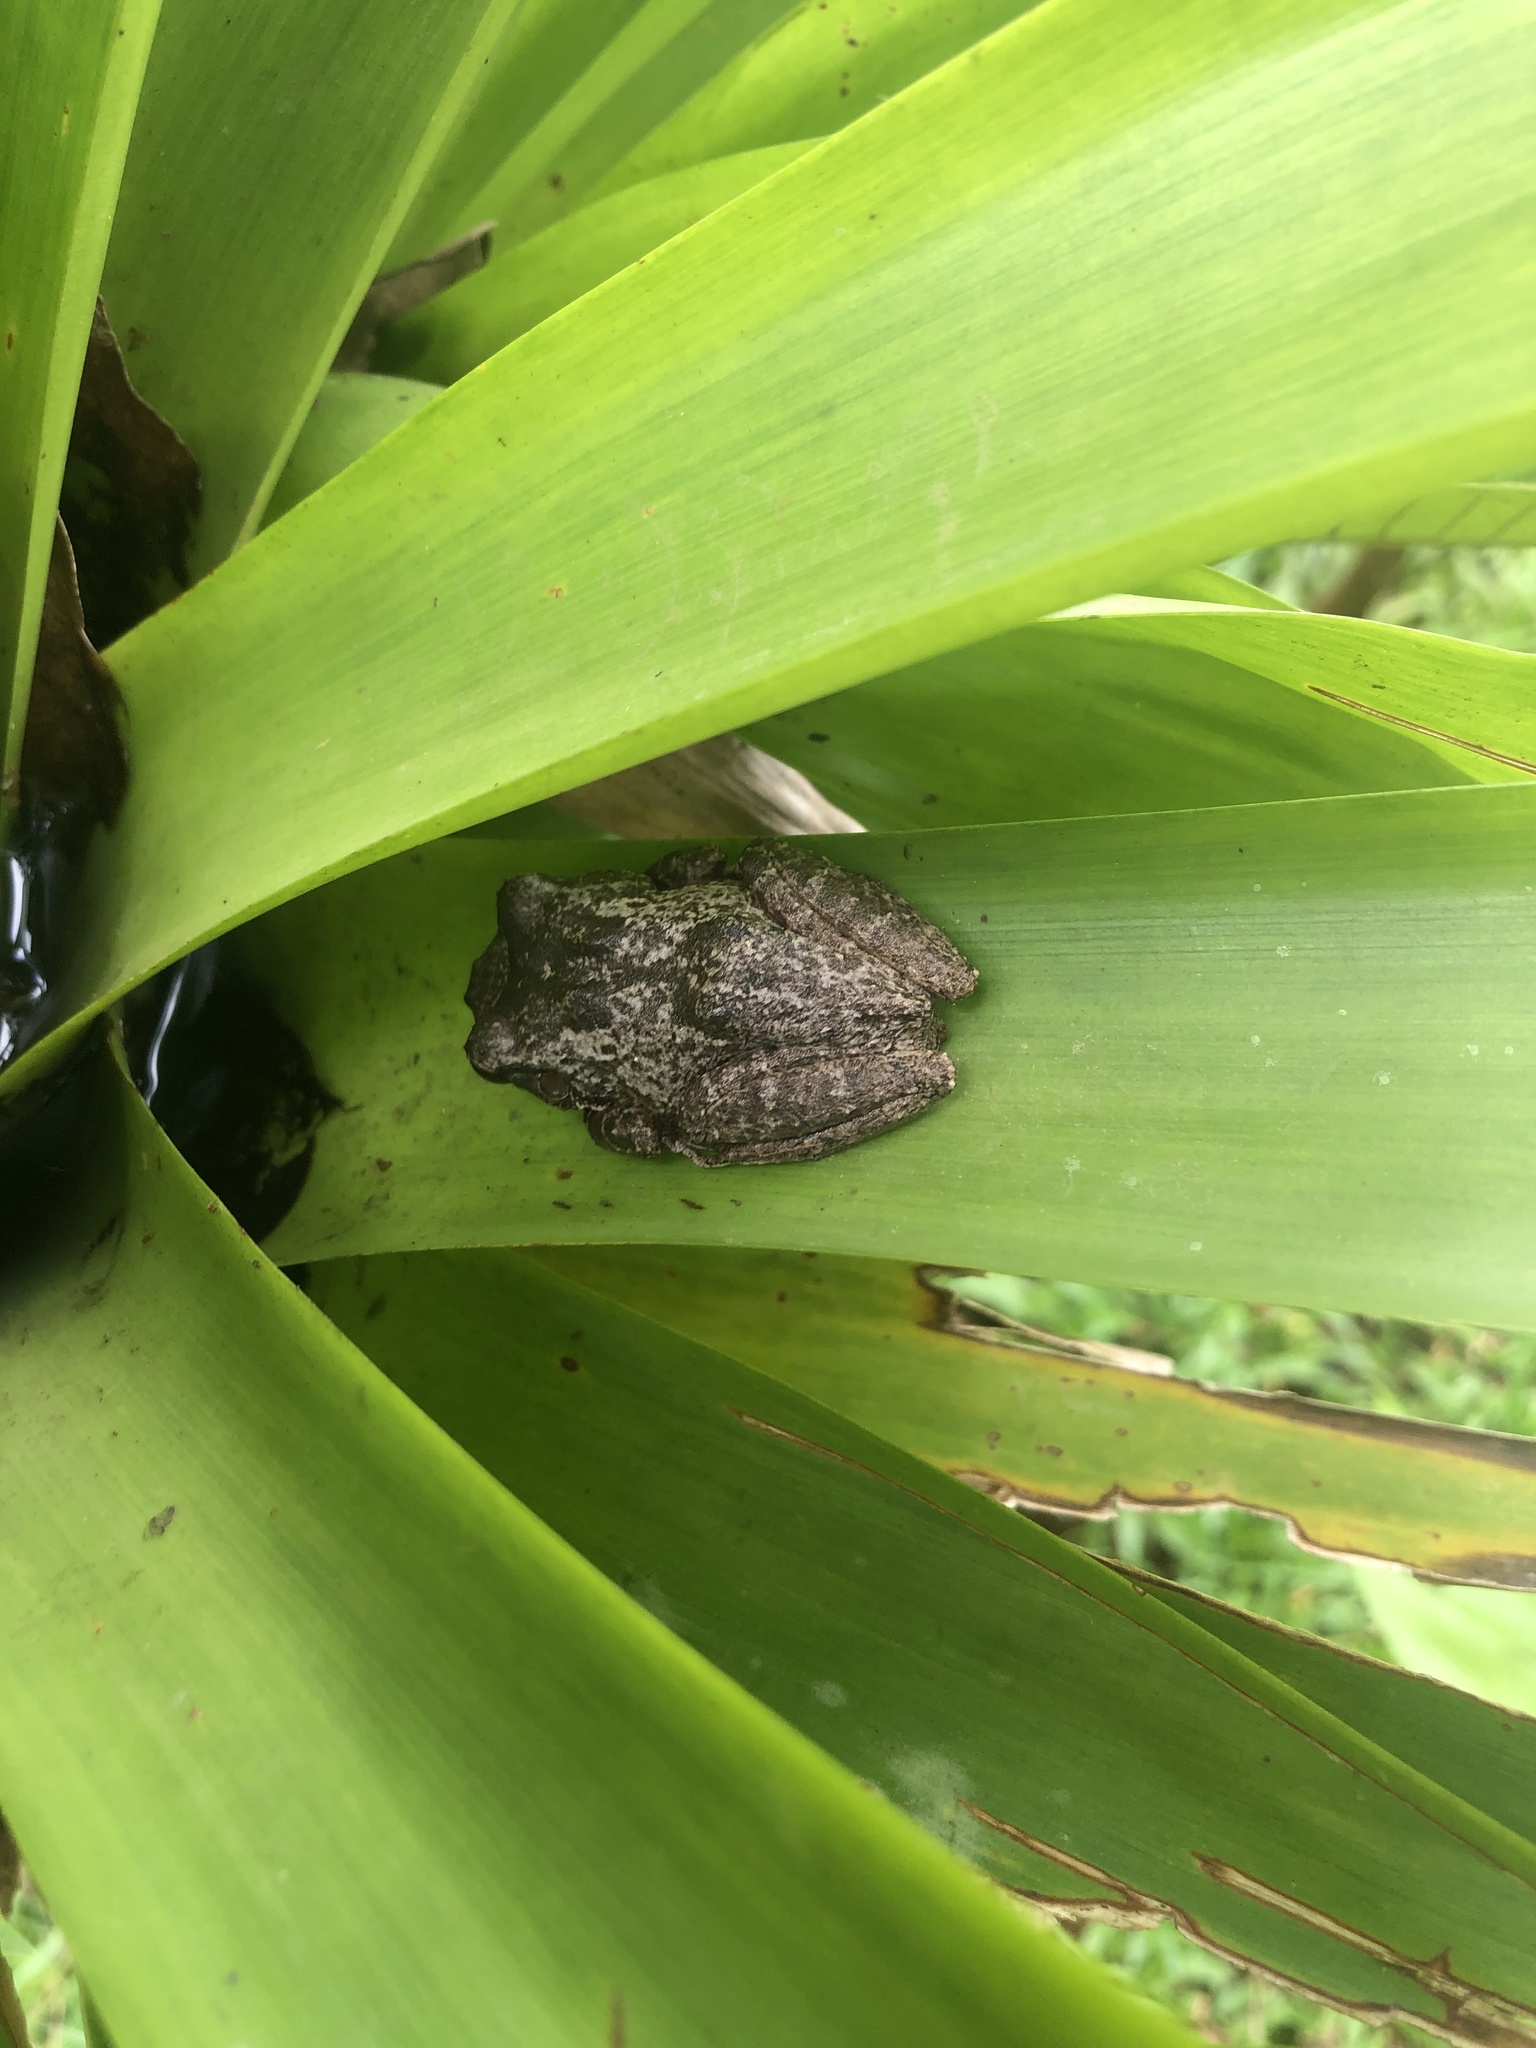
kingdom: Animalia
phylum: Chordata
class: Amphibia
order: Anura
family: Hylidae
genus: Osteopilus
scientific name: Osteopilus septentrionalis
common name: Cuban treefrog
